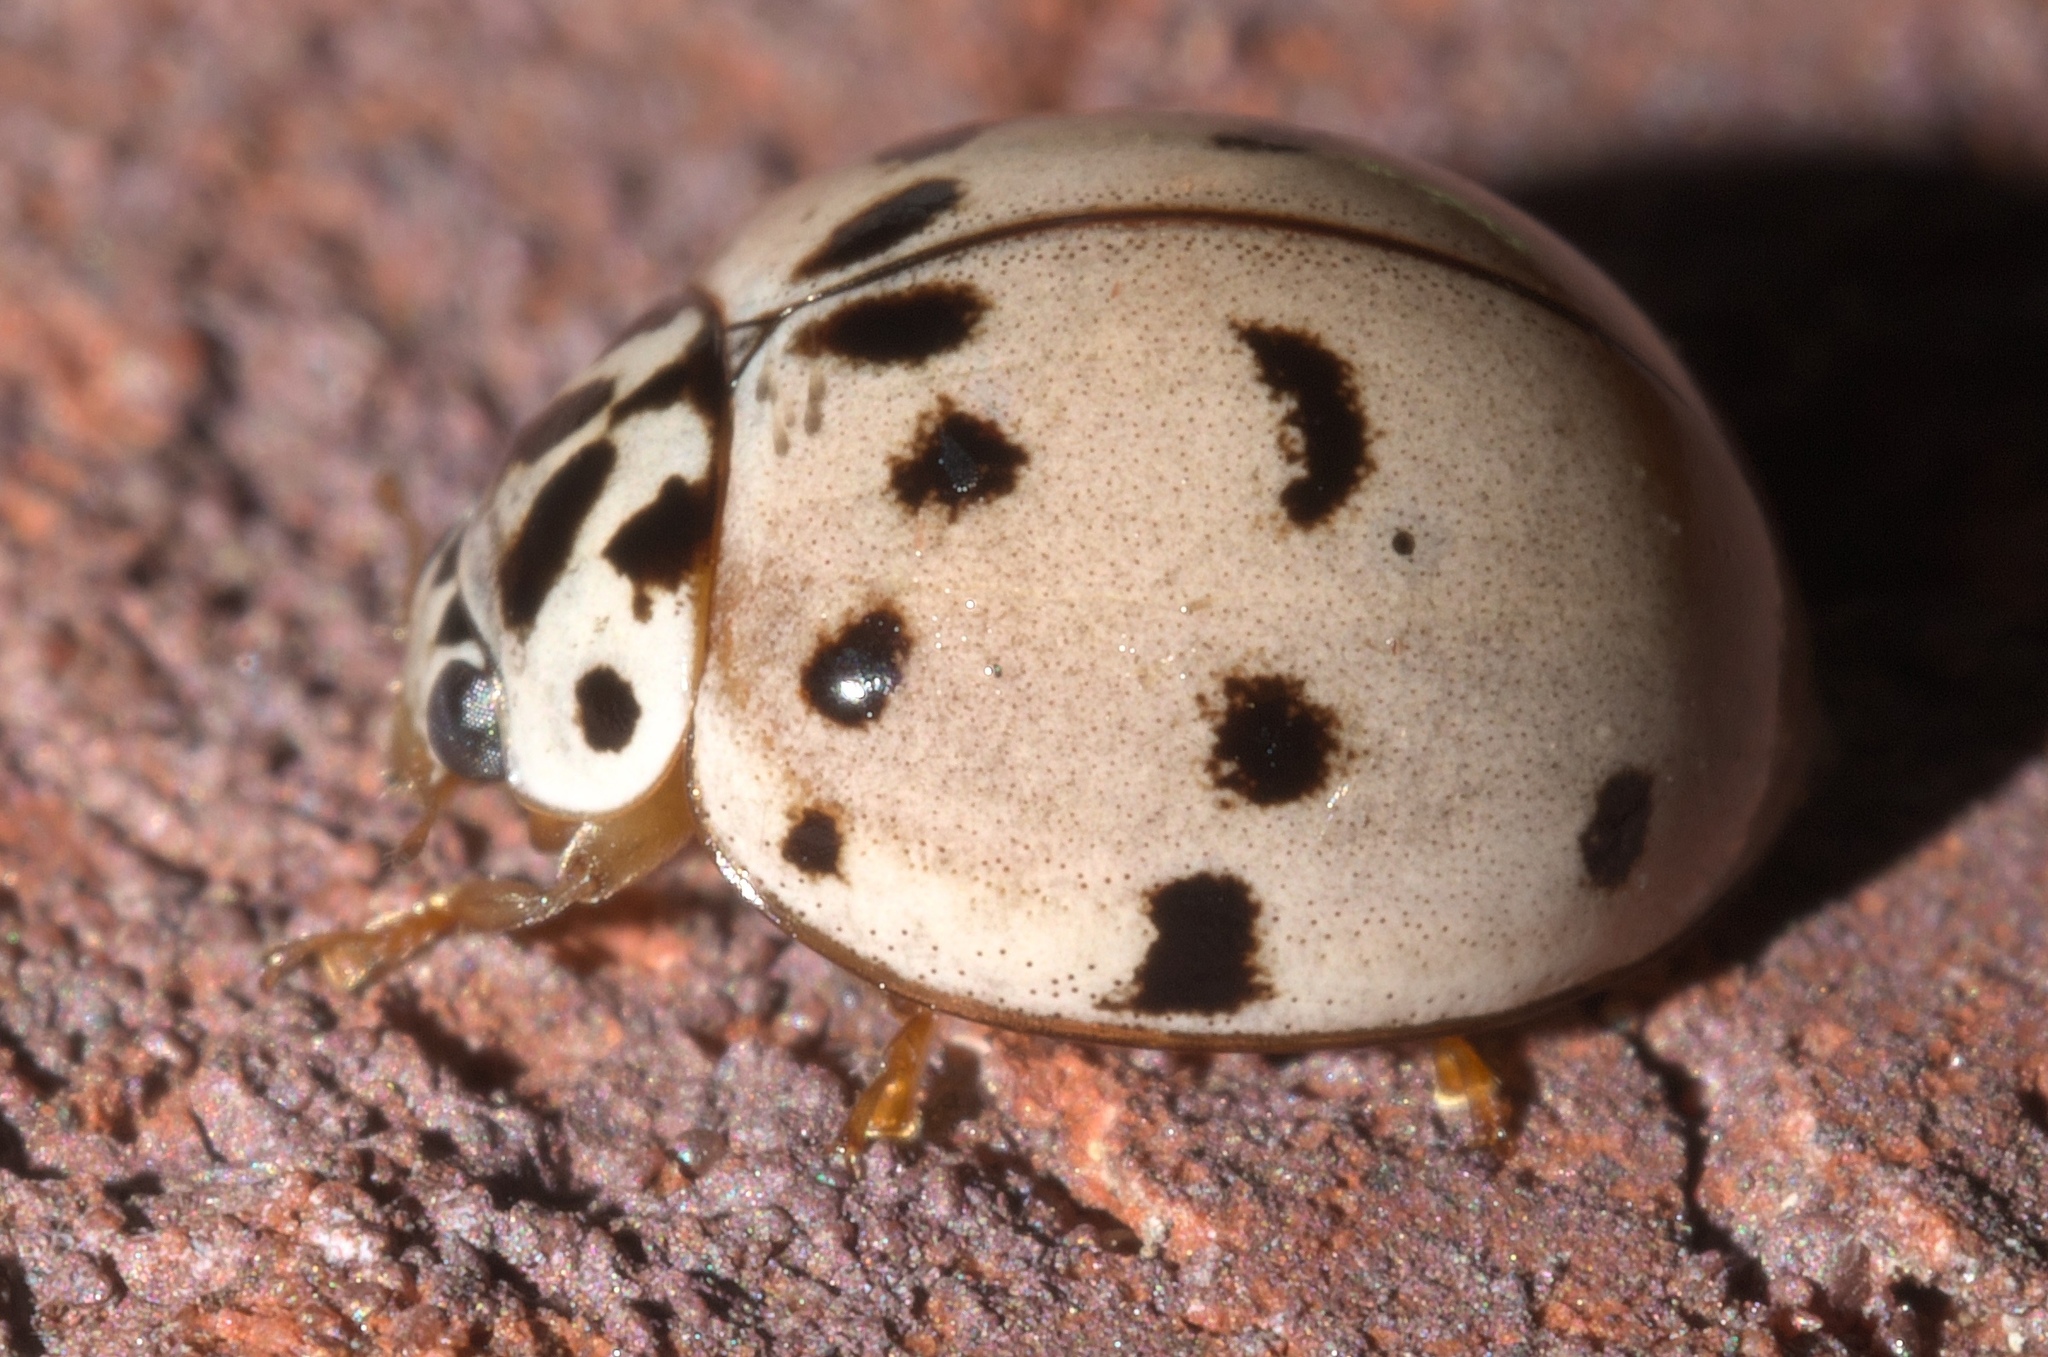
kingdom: Animalia
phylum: Arthropoda
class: Insecta
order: Coleoptera
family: Coccinellidae
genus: Olla
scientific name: Olla v-nigrum
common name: Ashy gray lady beetle
